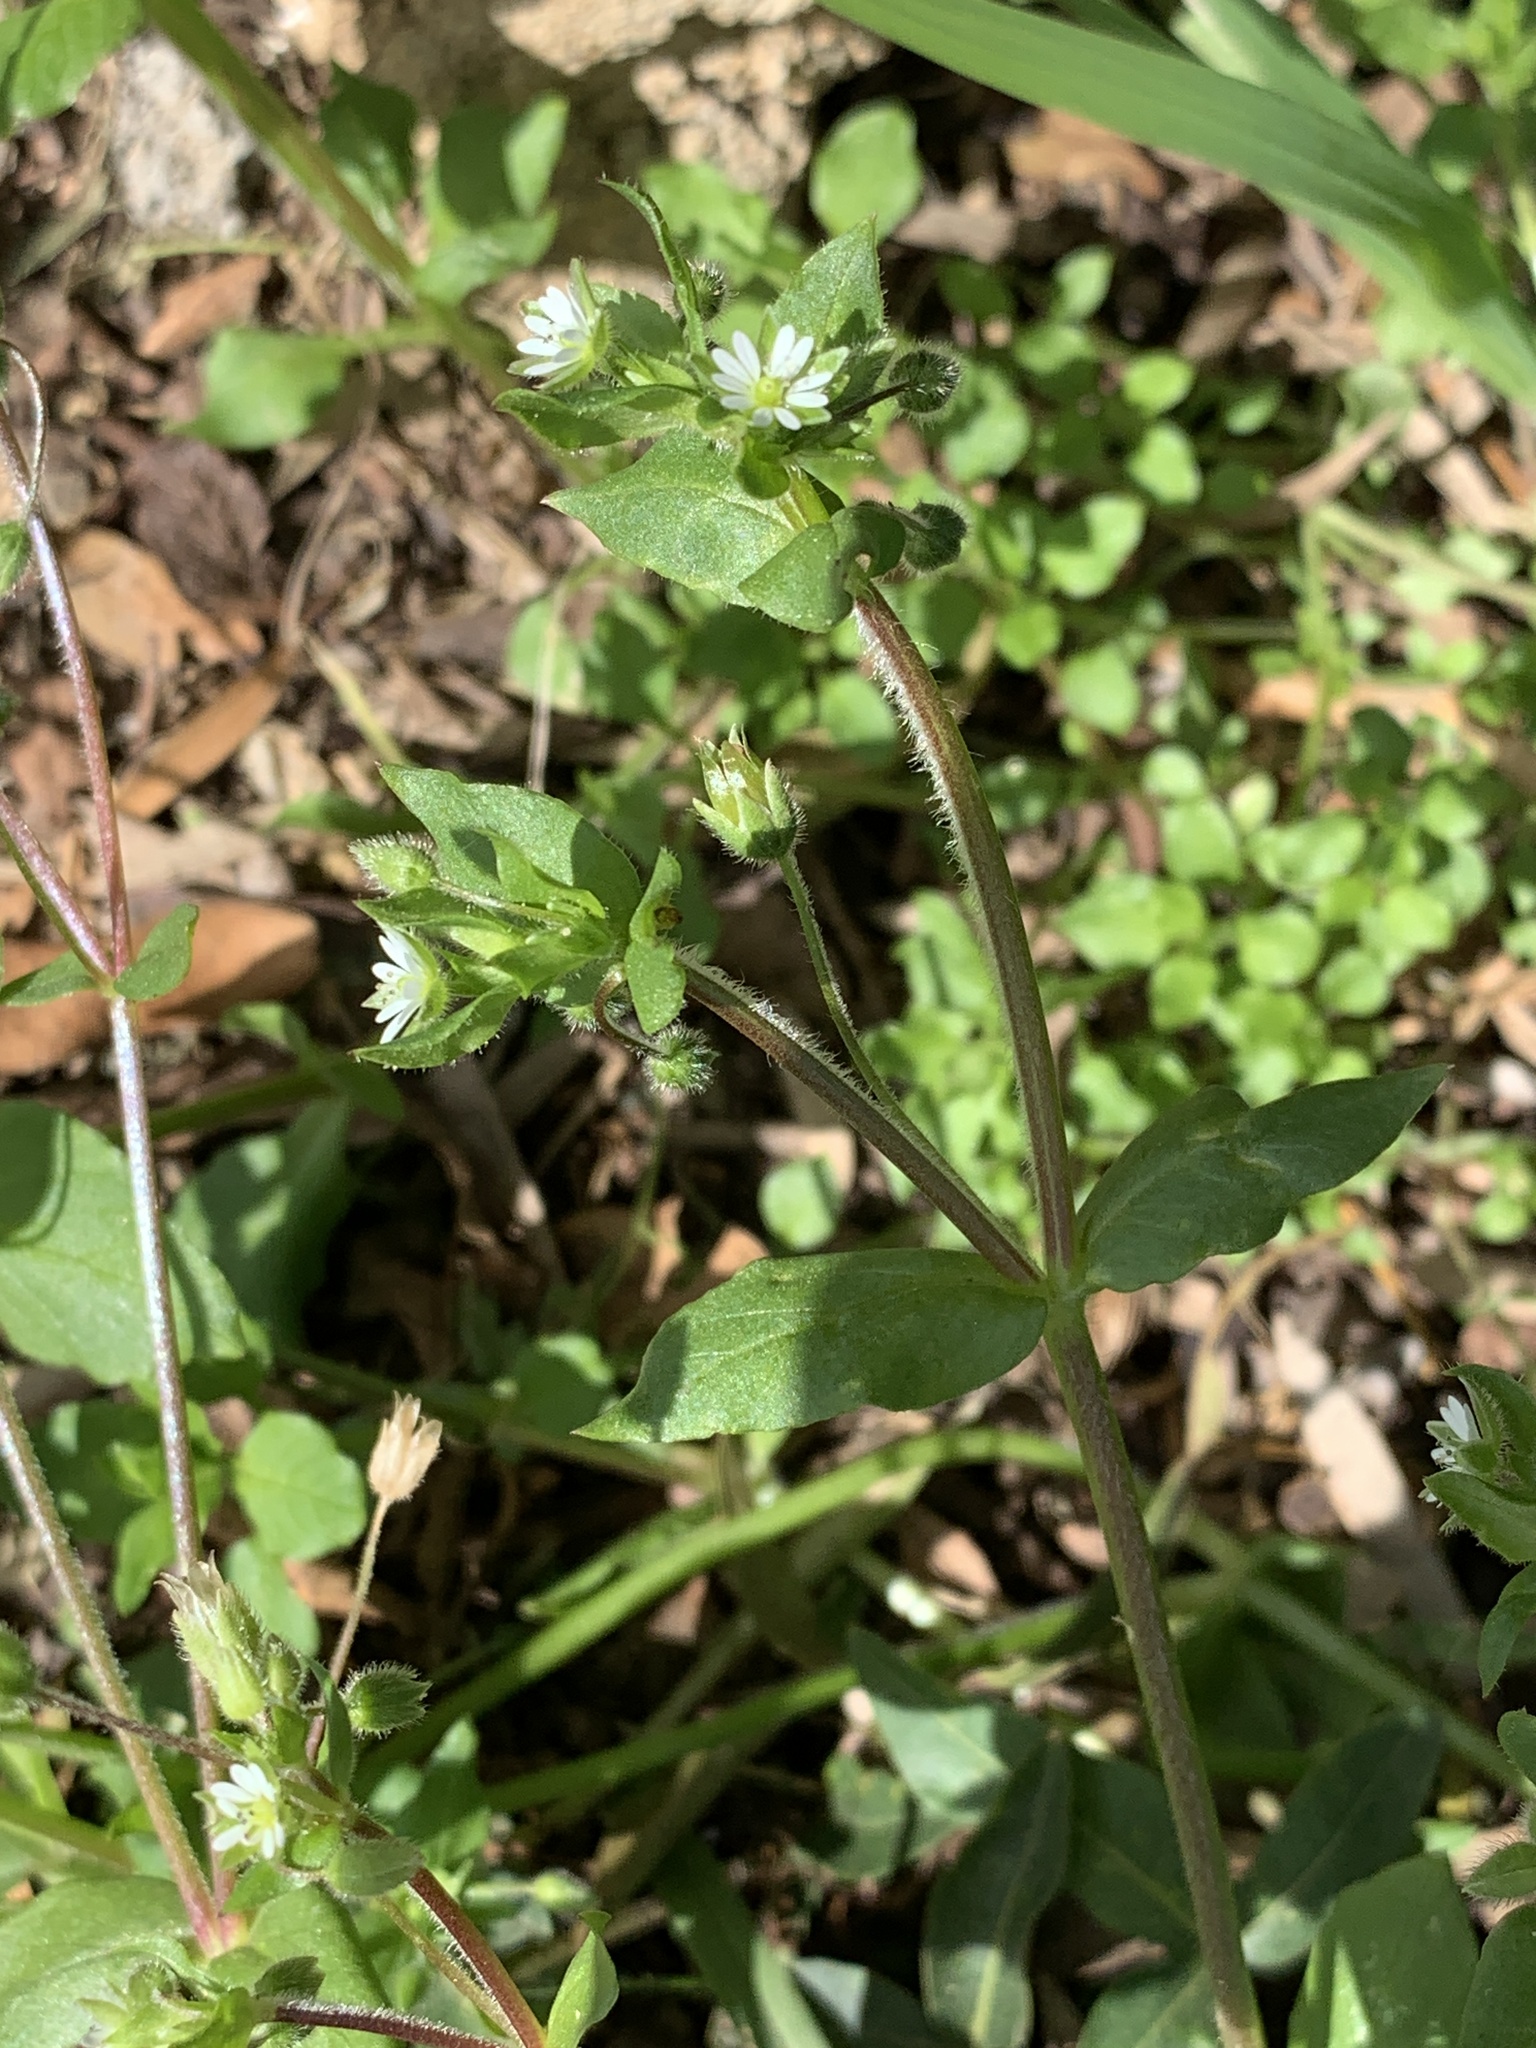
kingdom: Plantae
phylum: Tracheophyta
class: Magnoliopsida
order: Caryophyllales
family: Caryophyllaceae
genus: Stellaria
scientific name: Stellaria media
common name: Common chickweed
